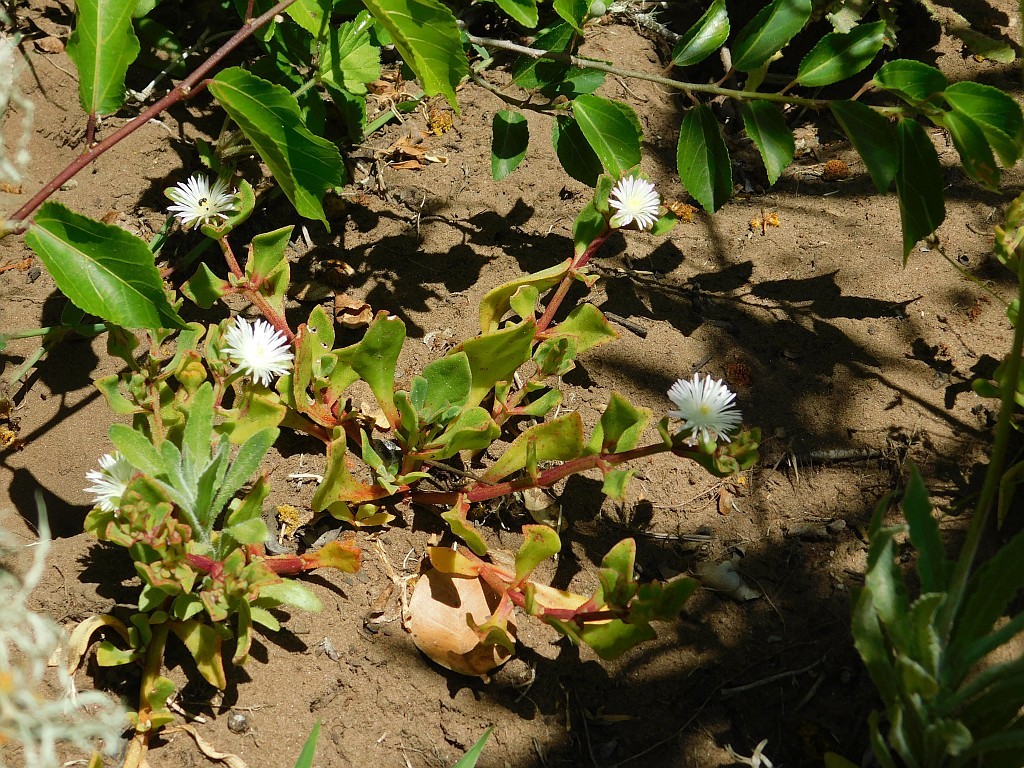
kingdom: Plantae
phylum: Tracheophyta
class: Magnoliopsida
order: Caryophyllales
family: Aizoaceae
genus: Mesembryanthemum
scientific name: Mesembryanthemum aitonis
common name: Angled iceplant
